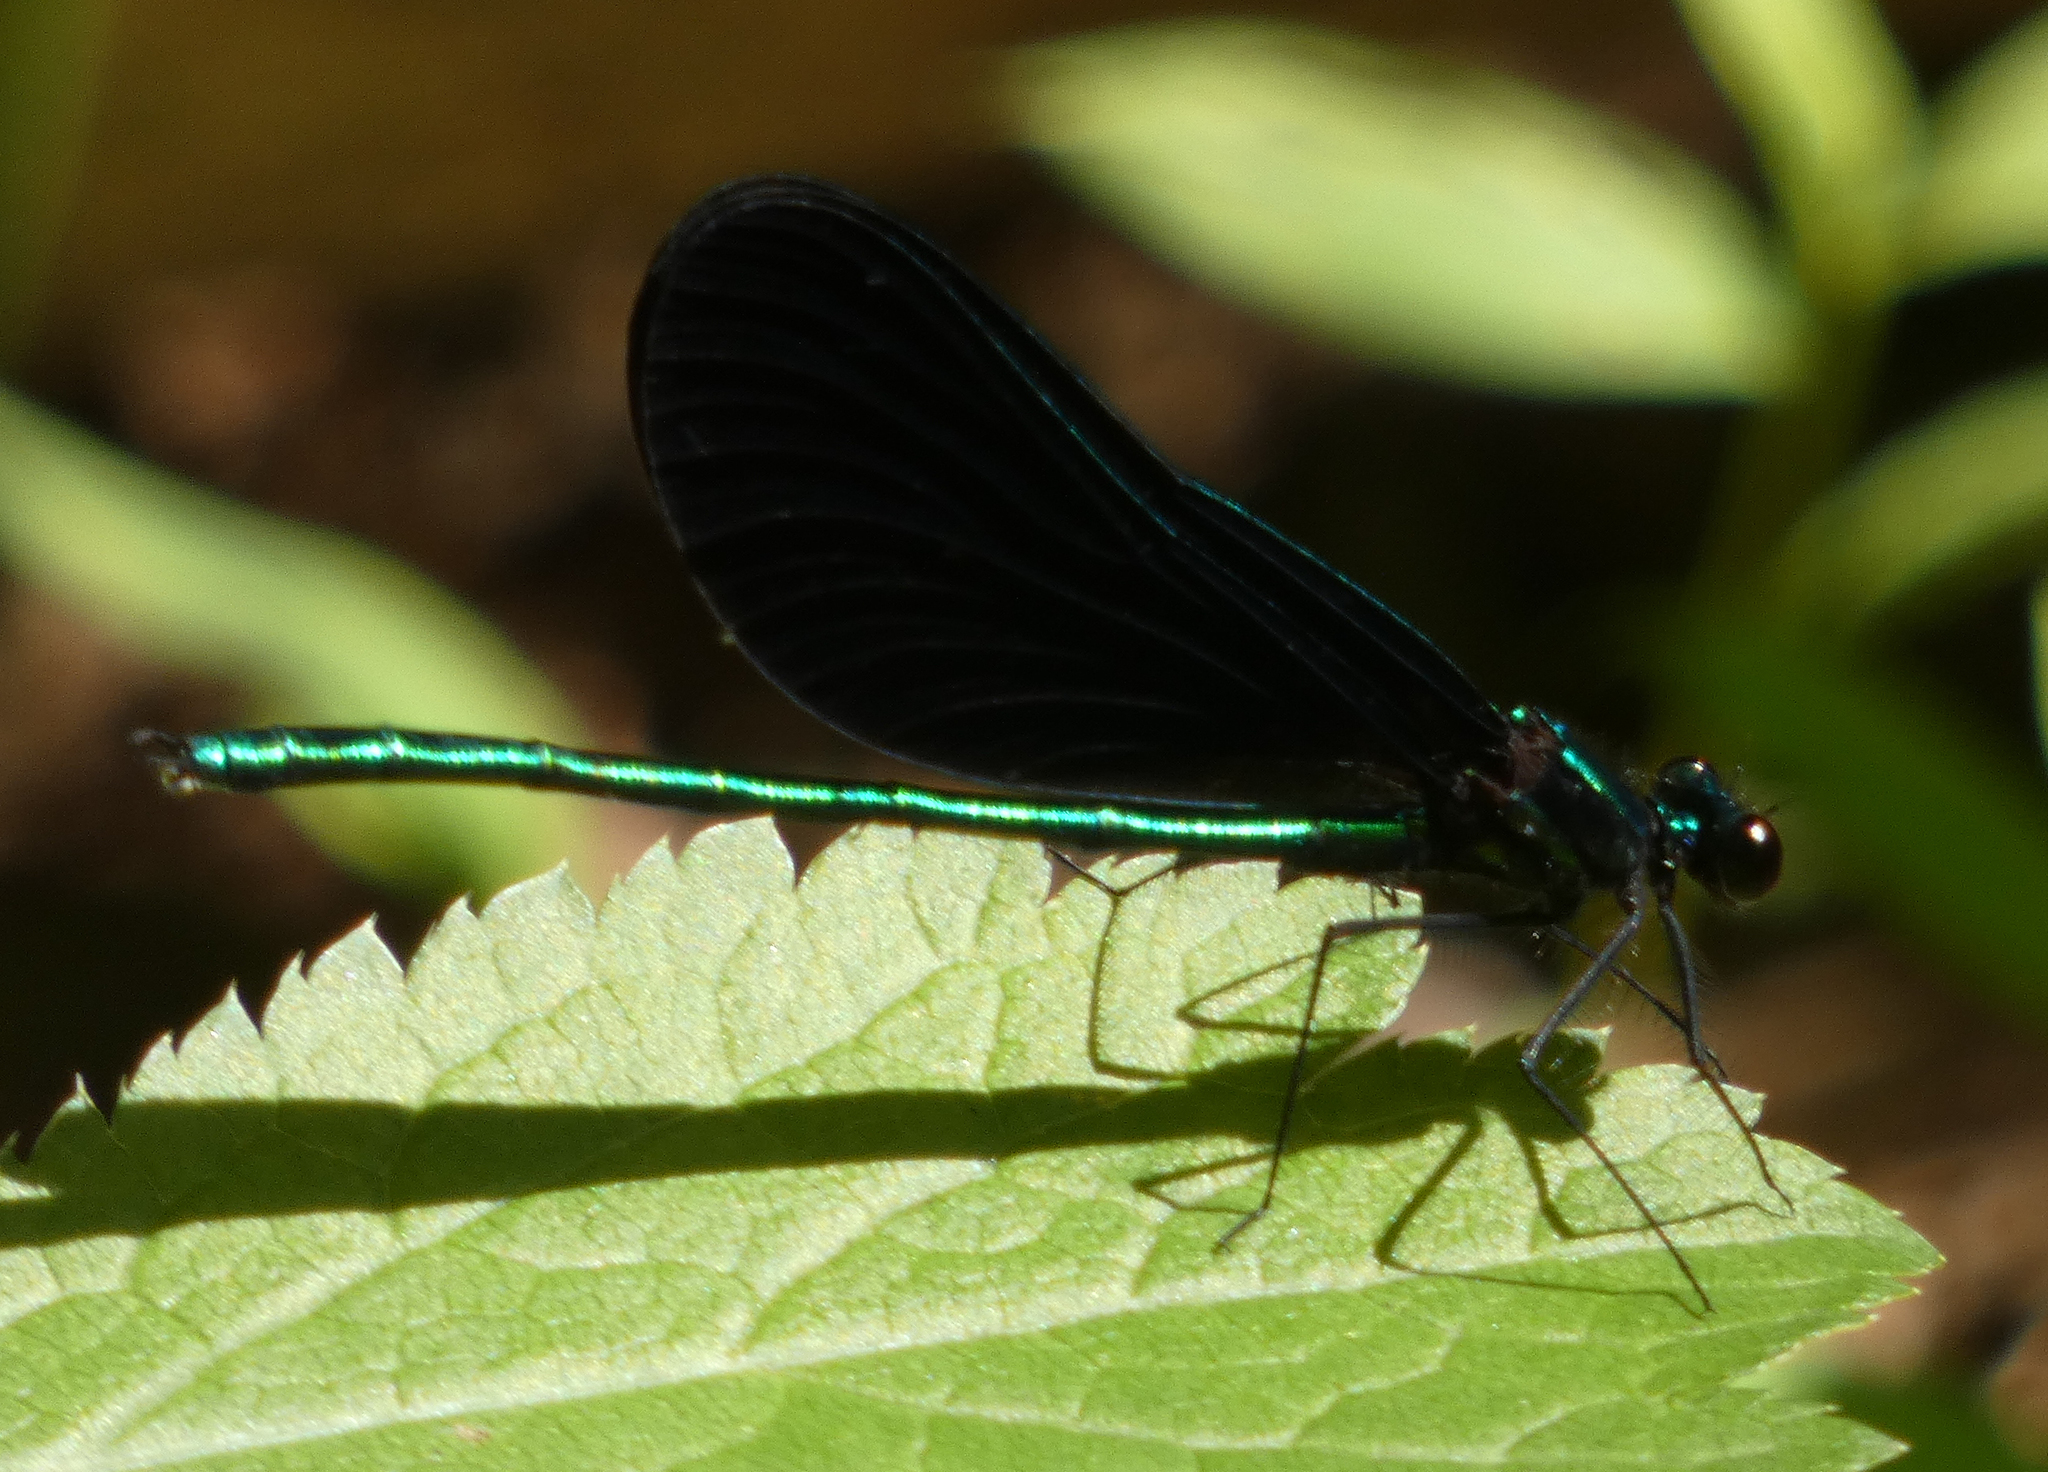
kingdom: Animalia
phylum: Arthropoda
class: Insecta
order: Odonata
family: Calopterygidae
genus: Calopteryx
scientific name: Calopteryx maculata
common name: Ebony jewelwing
